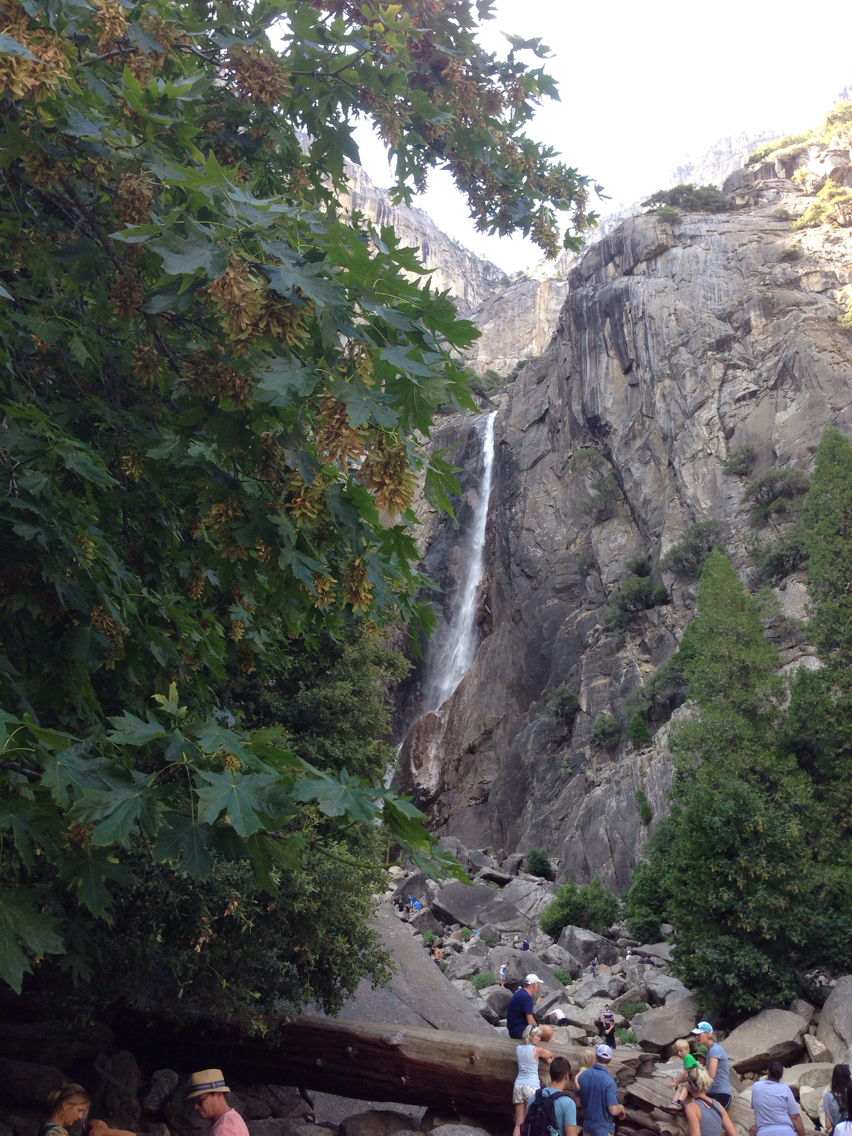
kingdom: Plantae
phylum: Tracheophyta
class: Magnoliopsida
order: Sapindales
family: Sapindaceae
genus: Acer
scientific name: Acer macrophyllum
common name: Oregon maple
